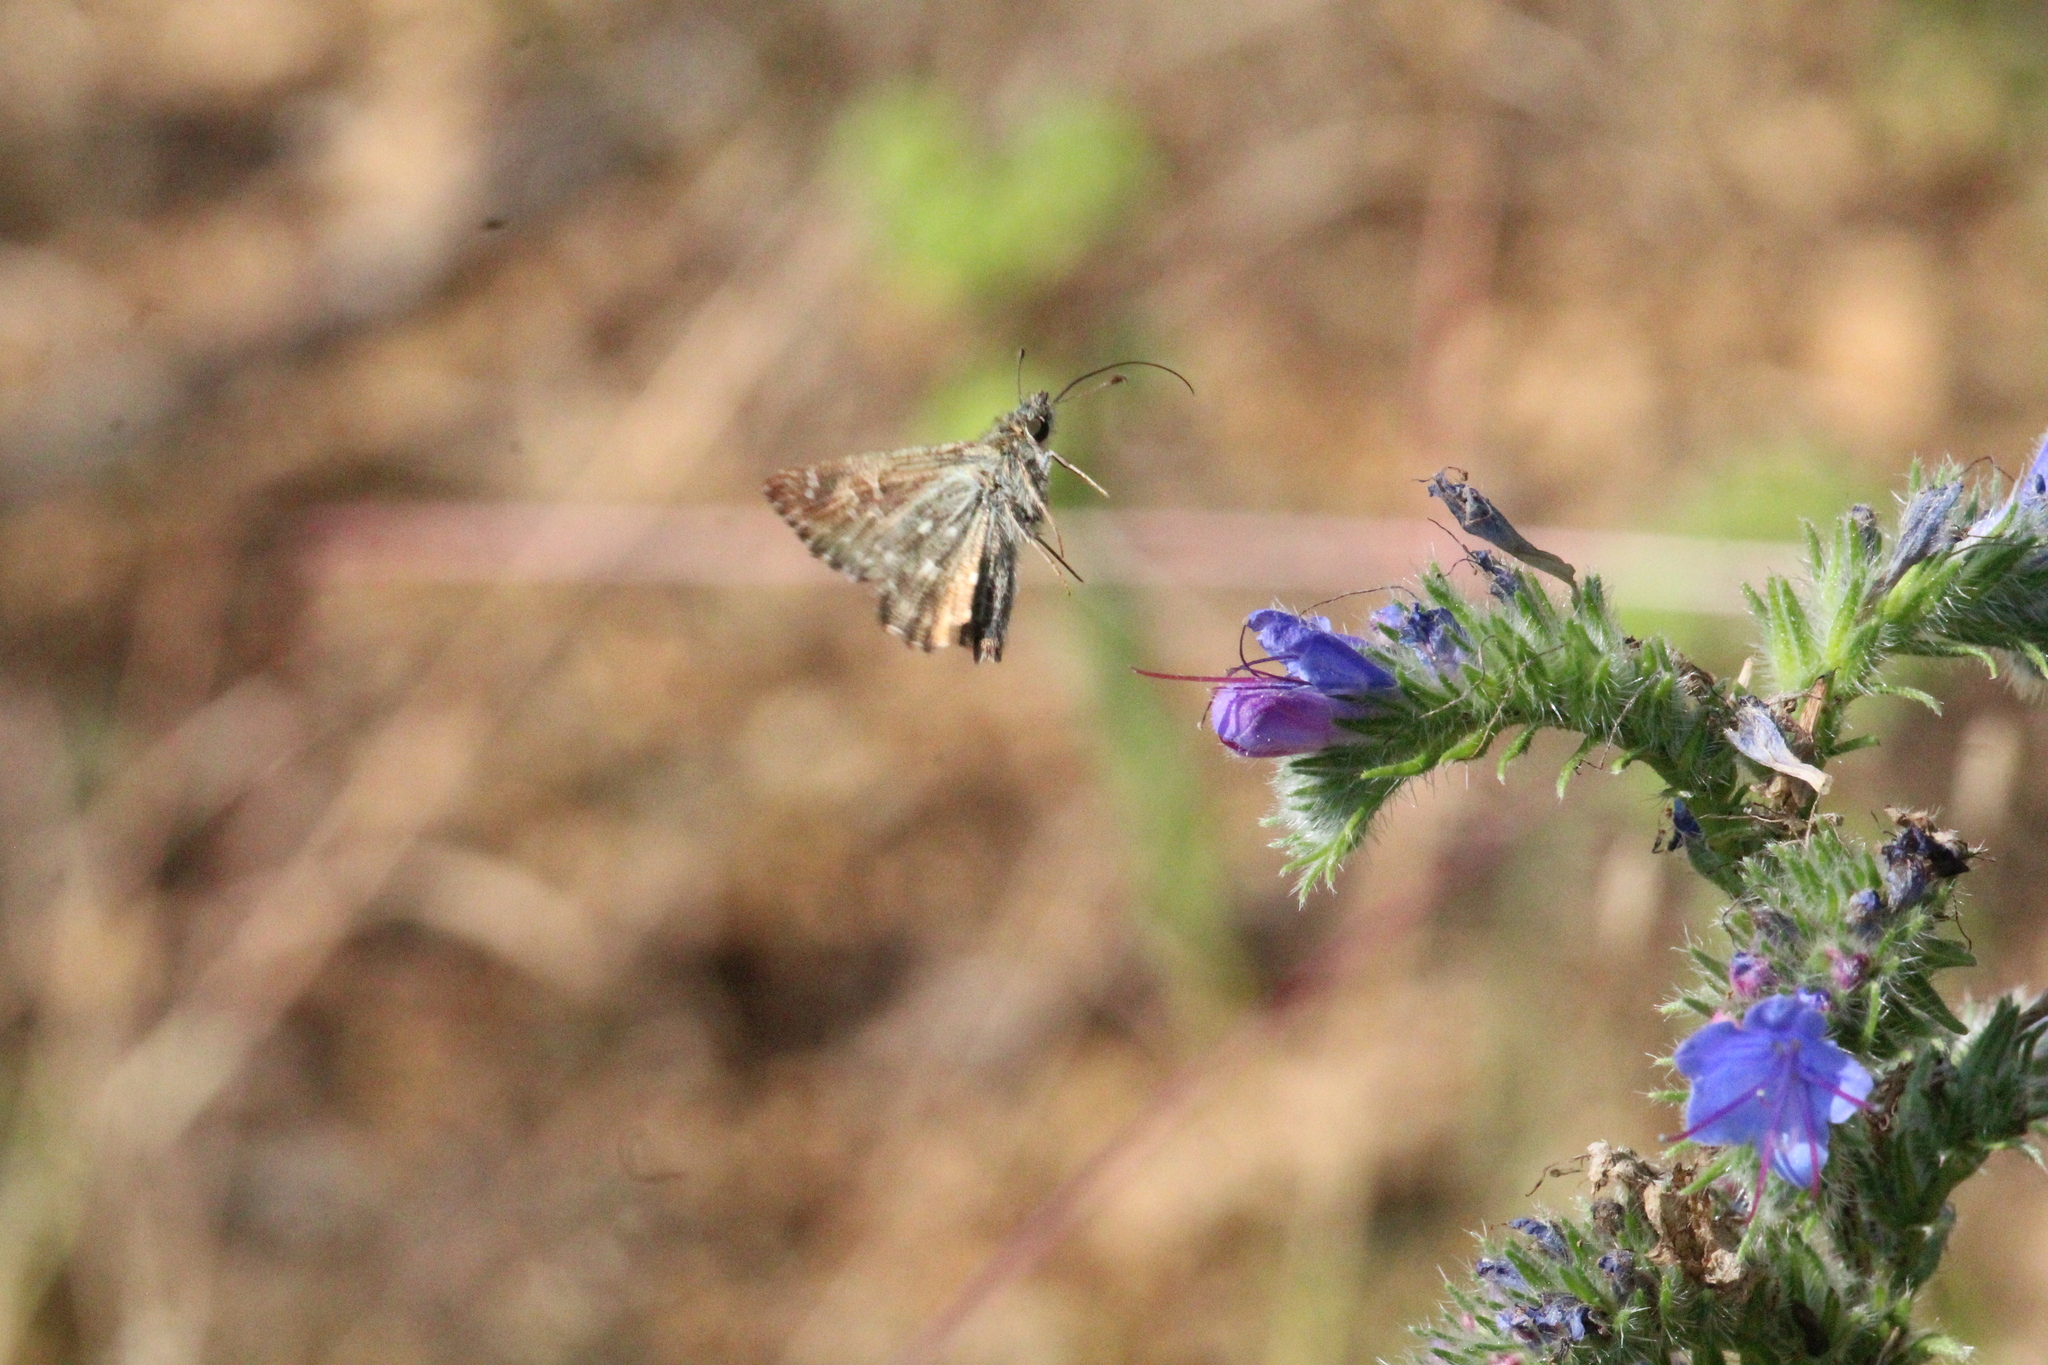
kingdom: Animalia
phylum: Arthropoda
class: Insecta
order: Lepidoptera
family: Hesperiidae
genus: Carcharodus
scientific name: Carcharodus alceae
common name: Mallow skipper
